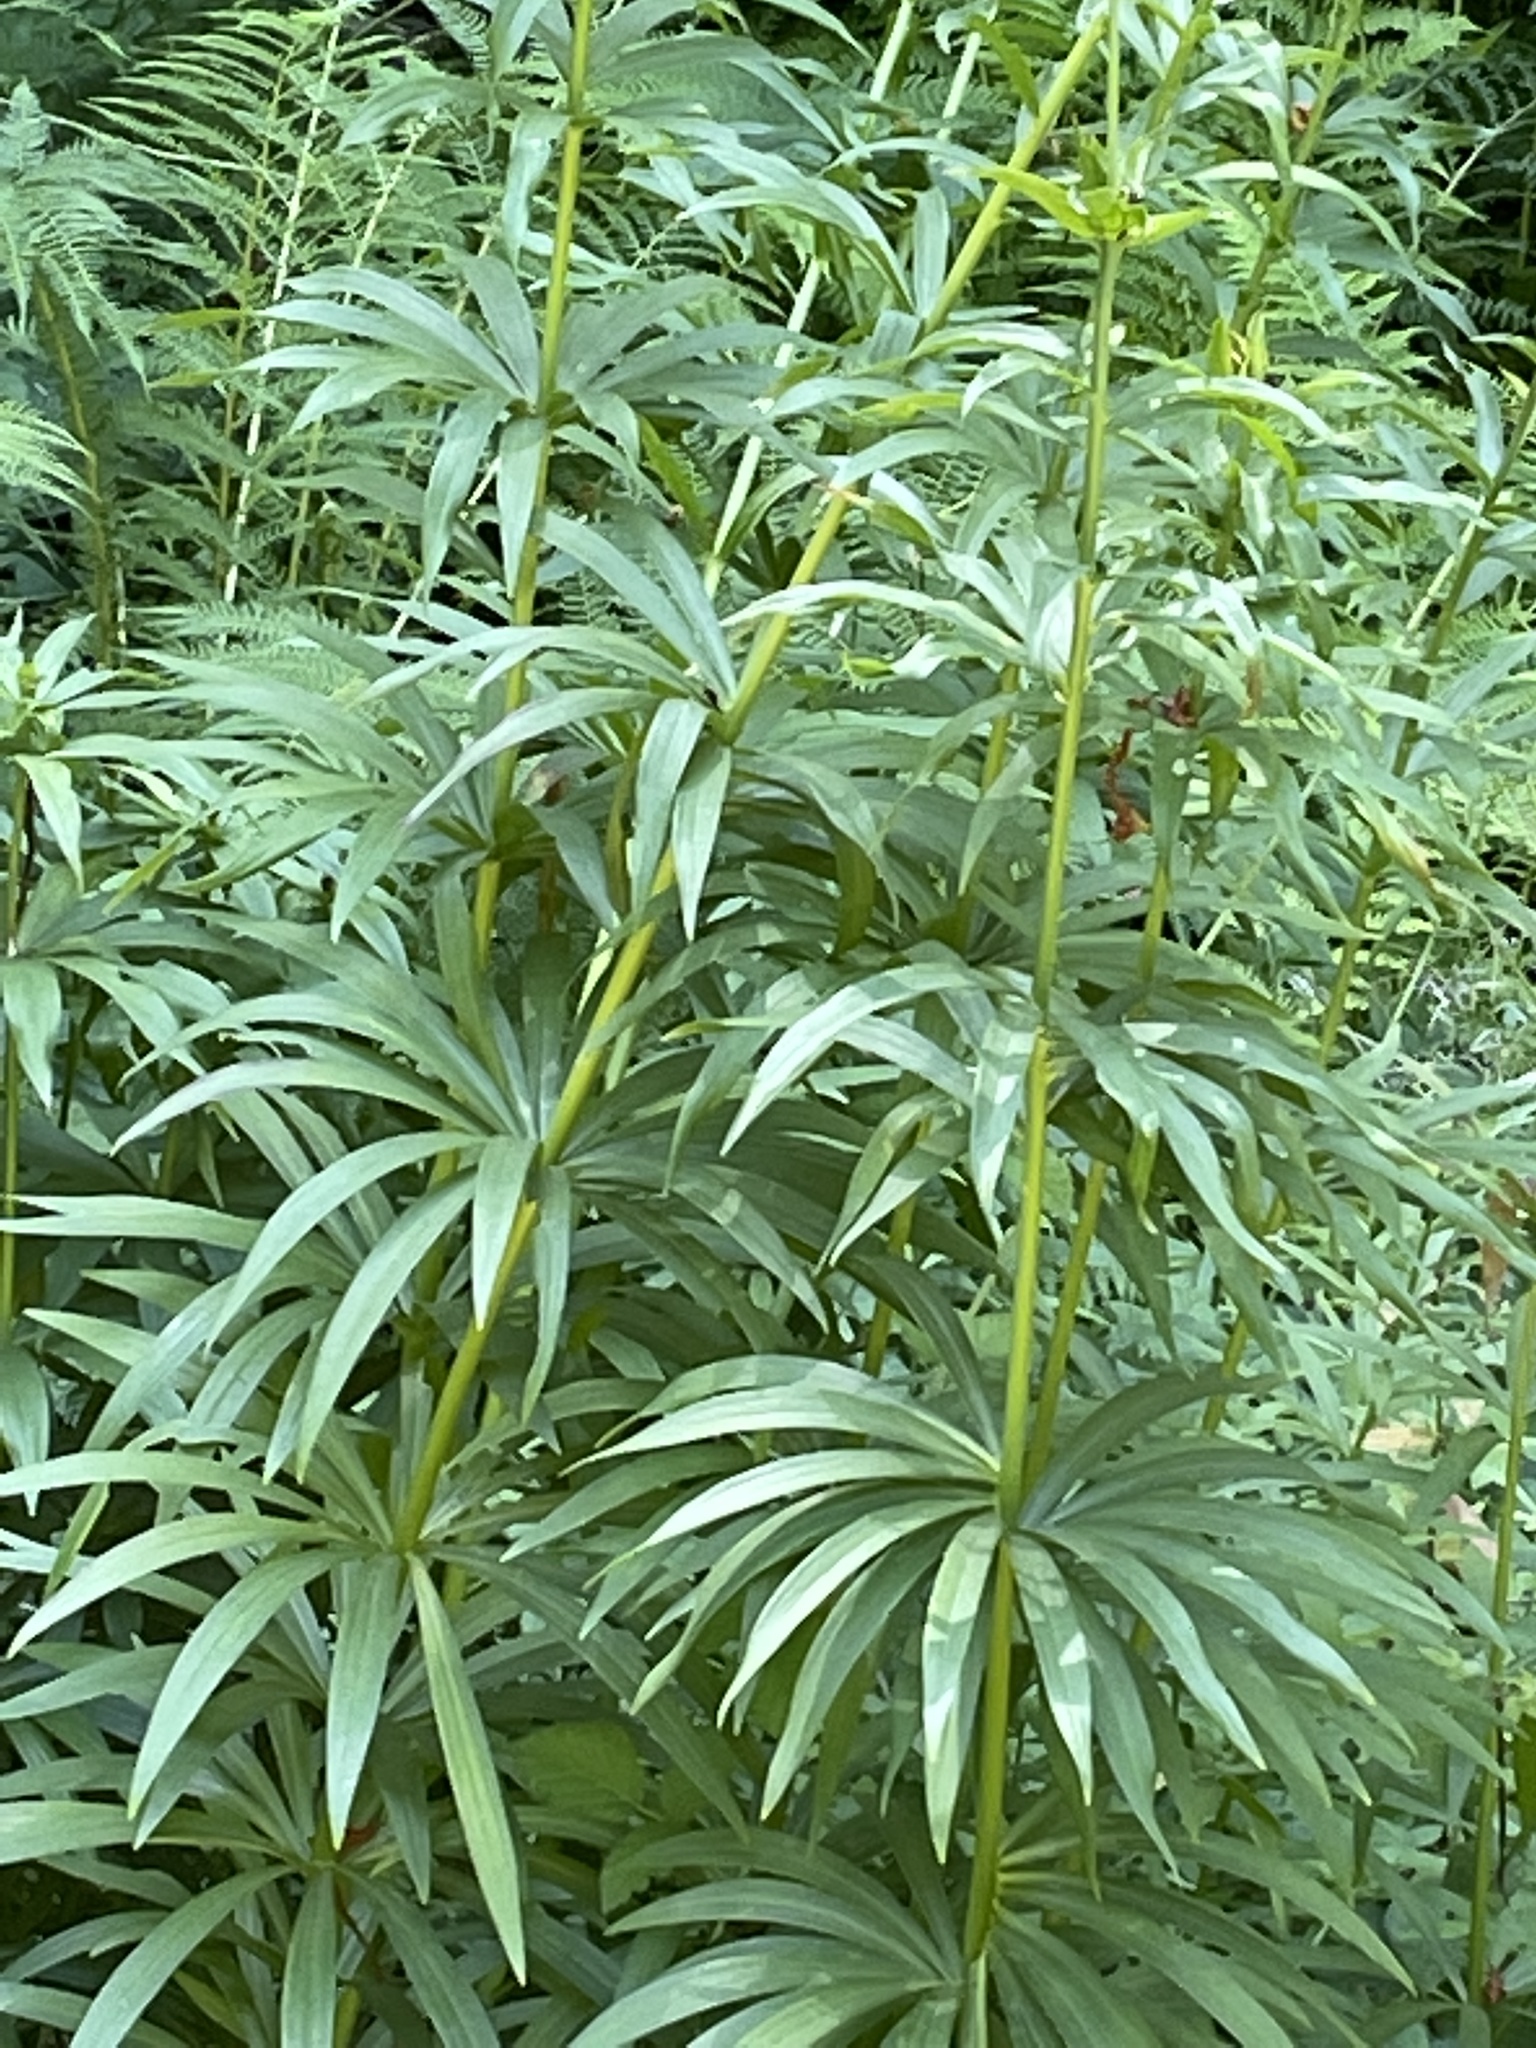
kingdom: Plantae
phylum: Tracheophyta
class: Liliopsida
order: Liliales
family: Liliaceae
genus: Lilium
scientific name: Lilium pardalinum
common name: Panther lily
